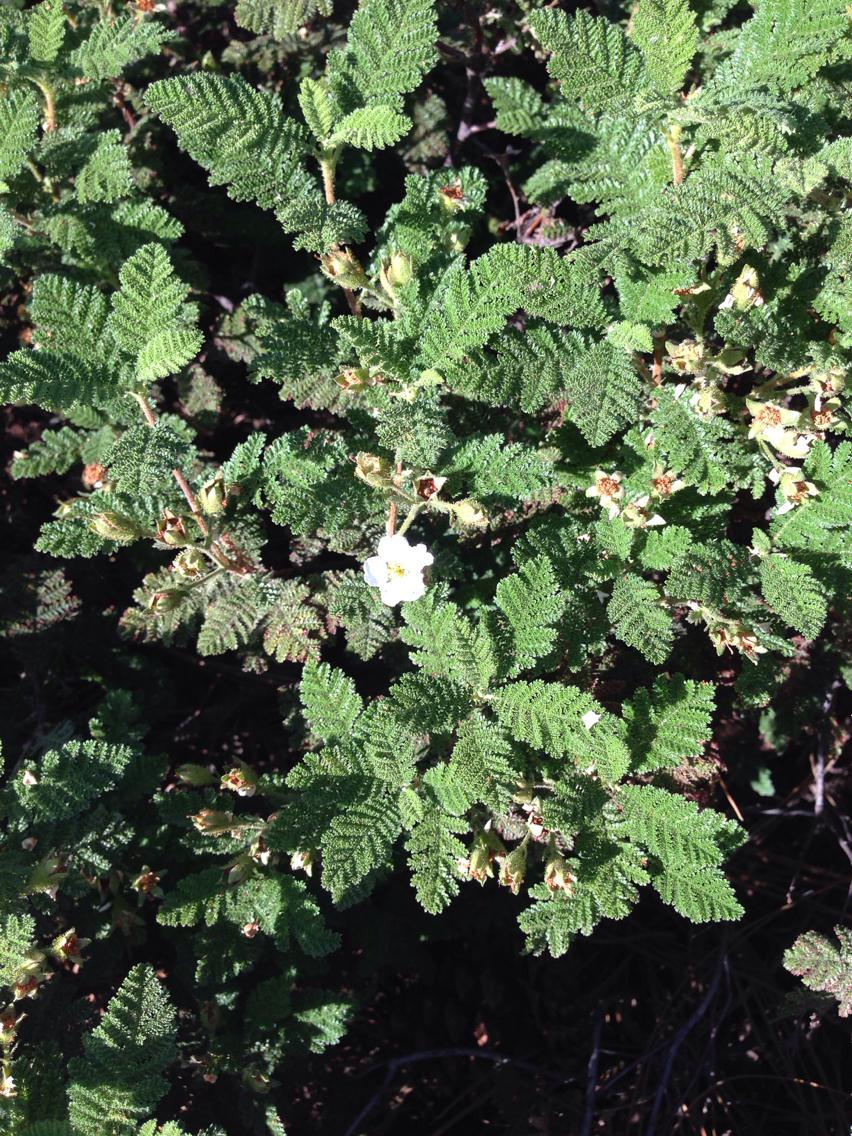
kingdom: Plantae
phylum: Tracheophyta
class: Magnoliopsida
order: Rosales
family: Rosaceae
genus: Chamaebatia
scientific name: Chamaebatia foliolosa
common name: Mountain misery
